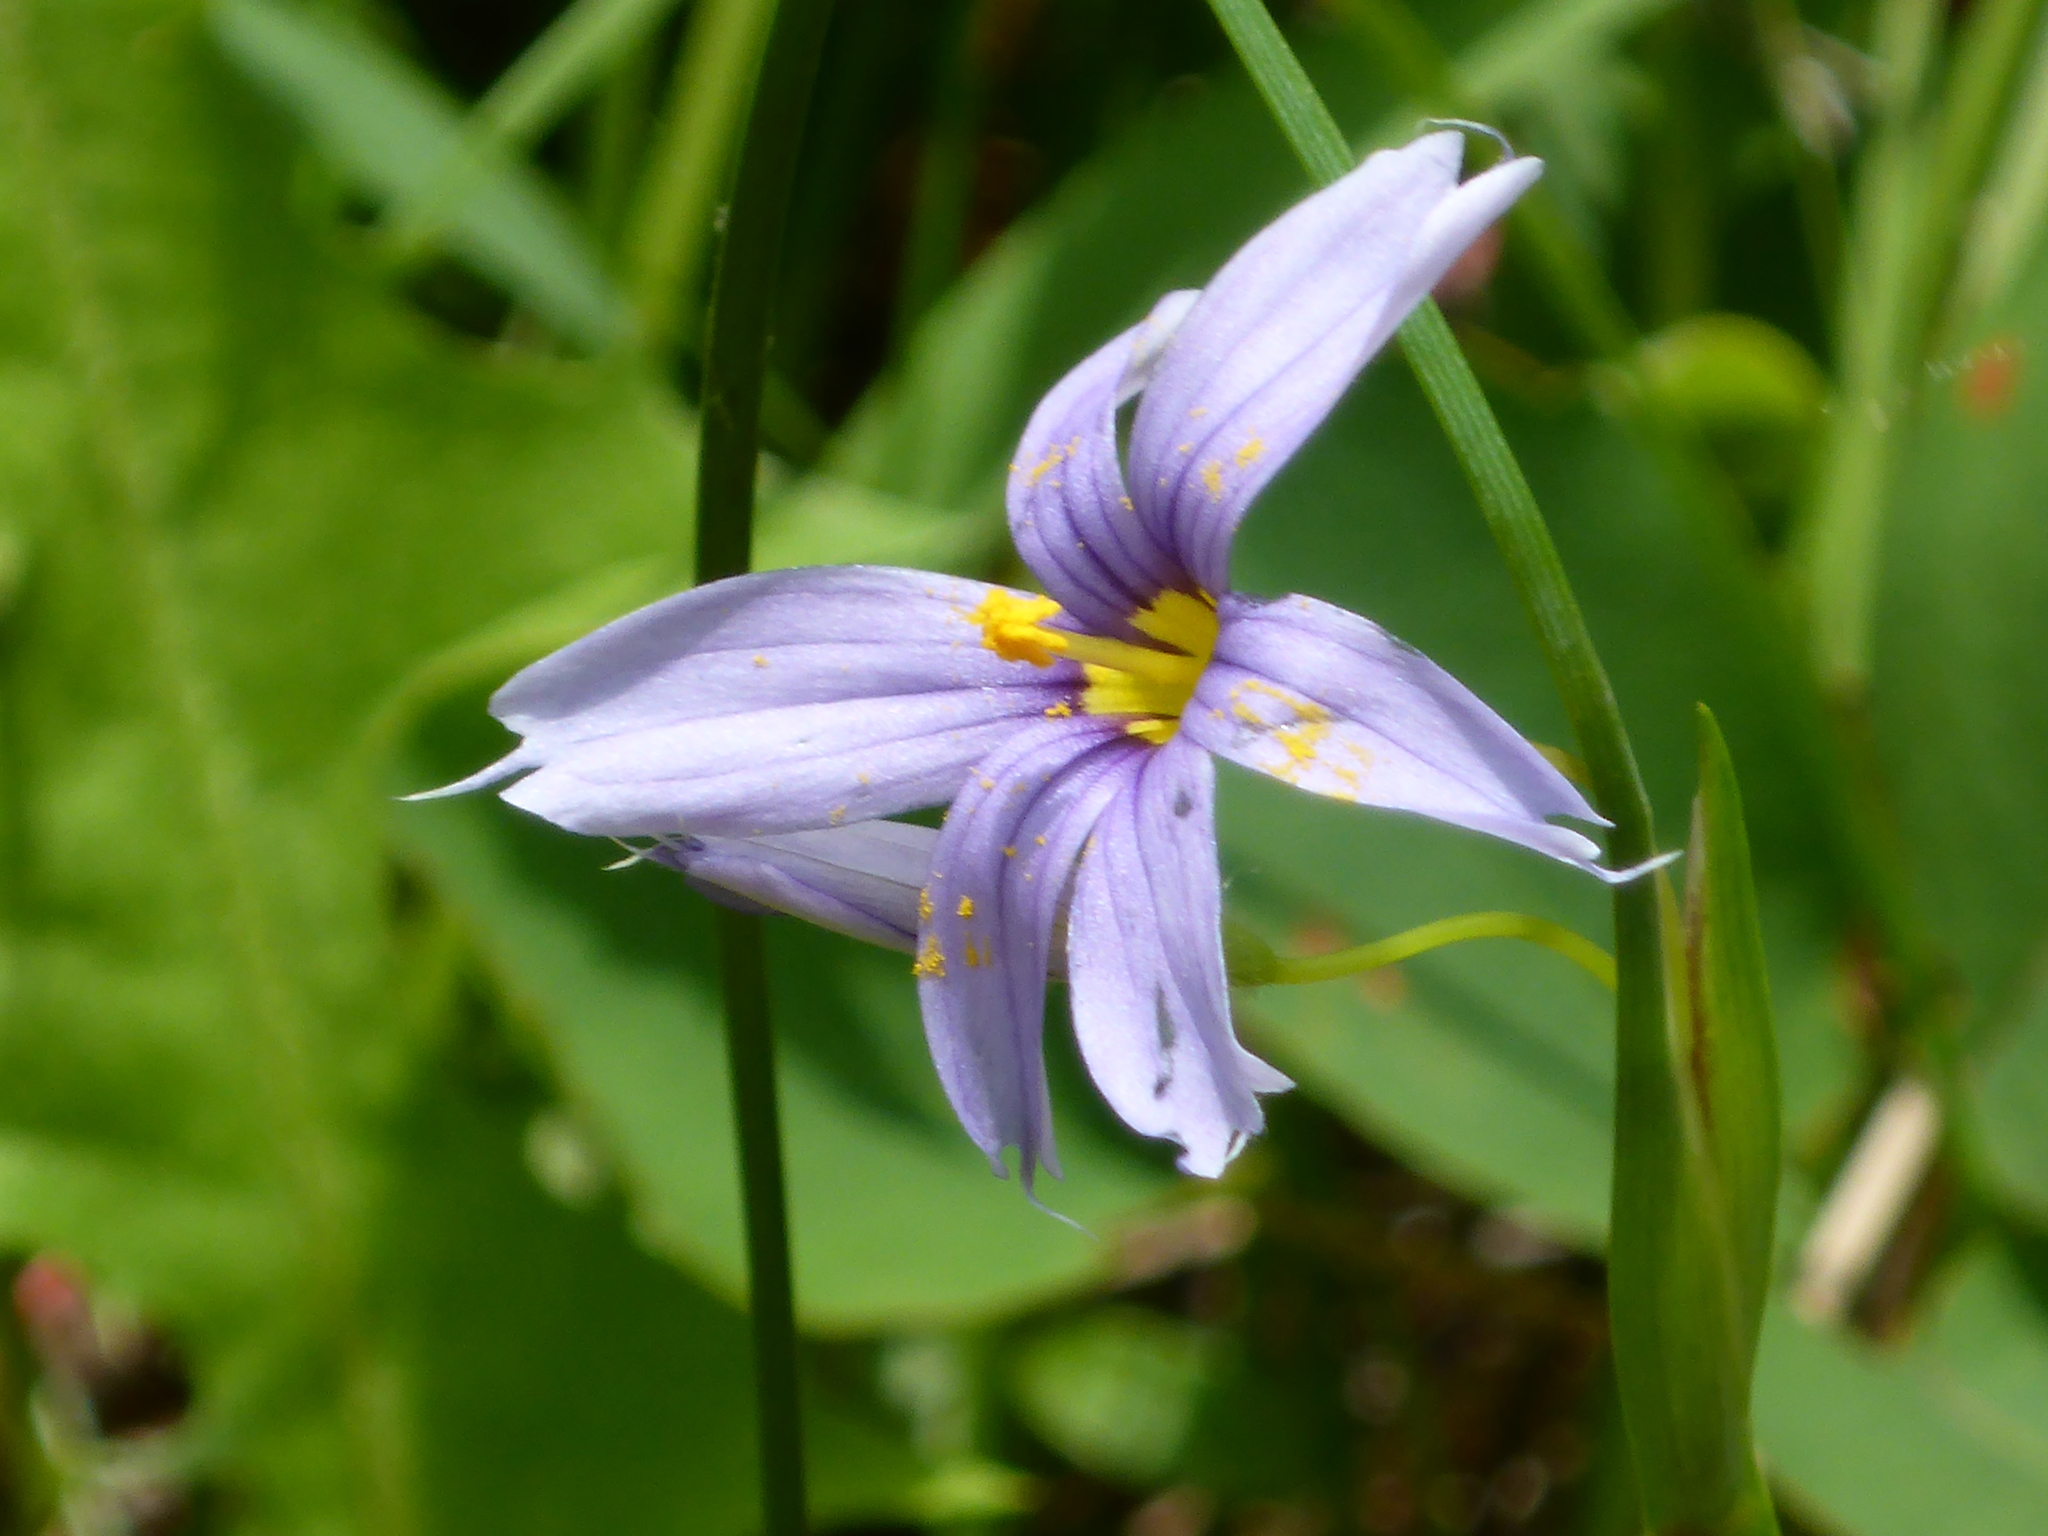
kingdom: Plantae
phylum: Tracheophyta
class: Liliopsida
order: Asparagales
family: Iridaceae
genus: Sisyrinchium
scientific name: Sisyrinchium montanum
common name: American blue-eyed-grass
